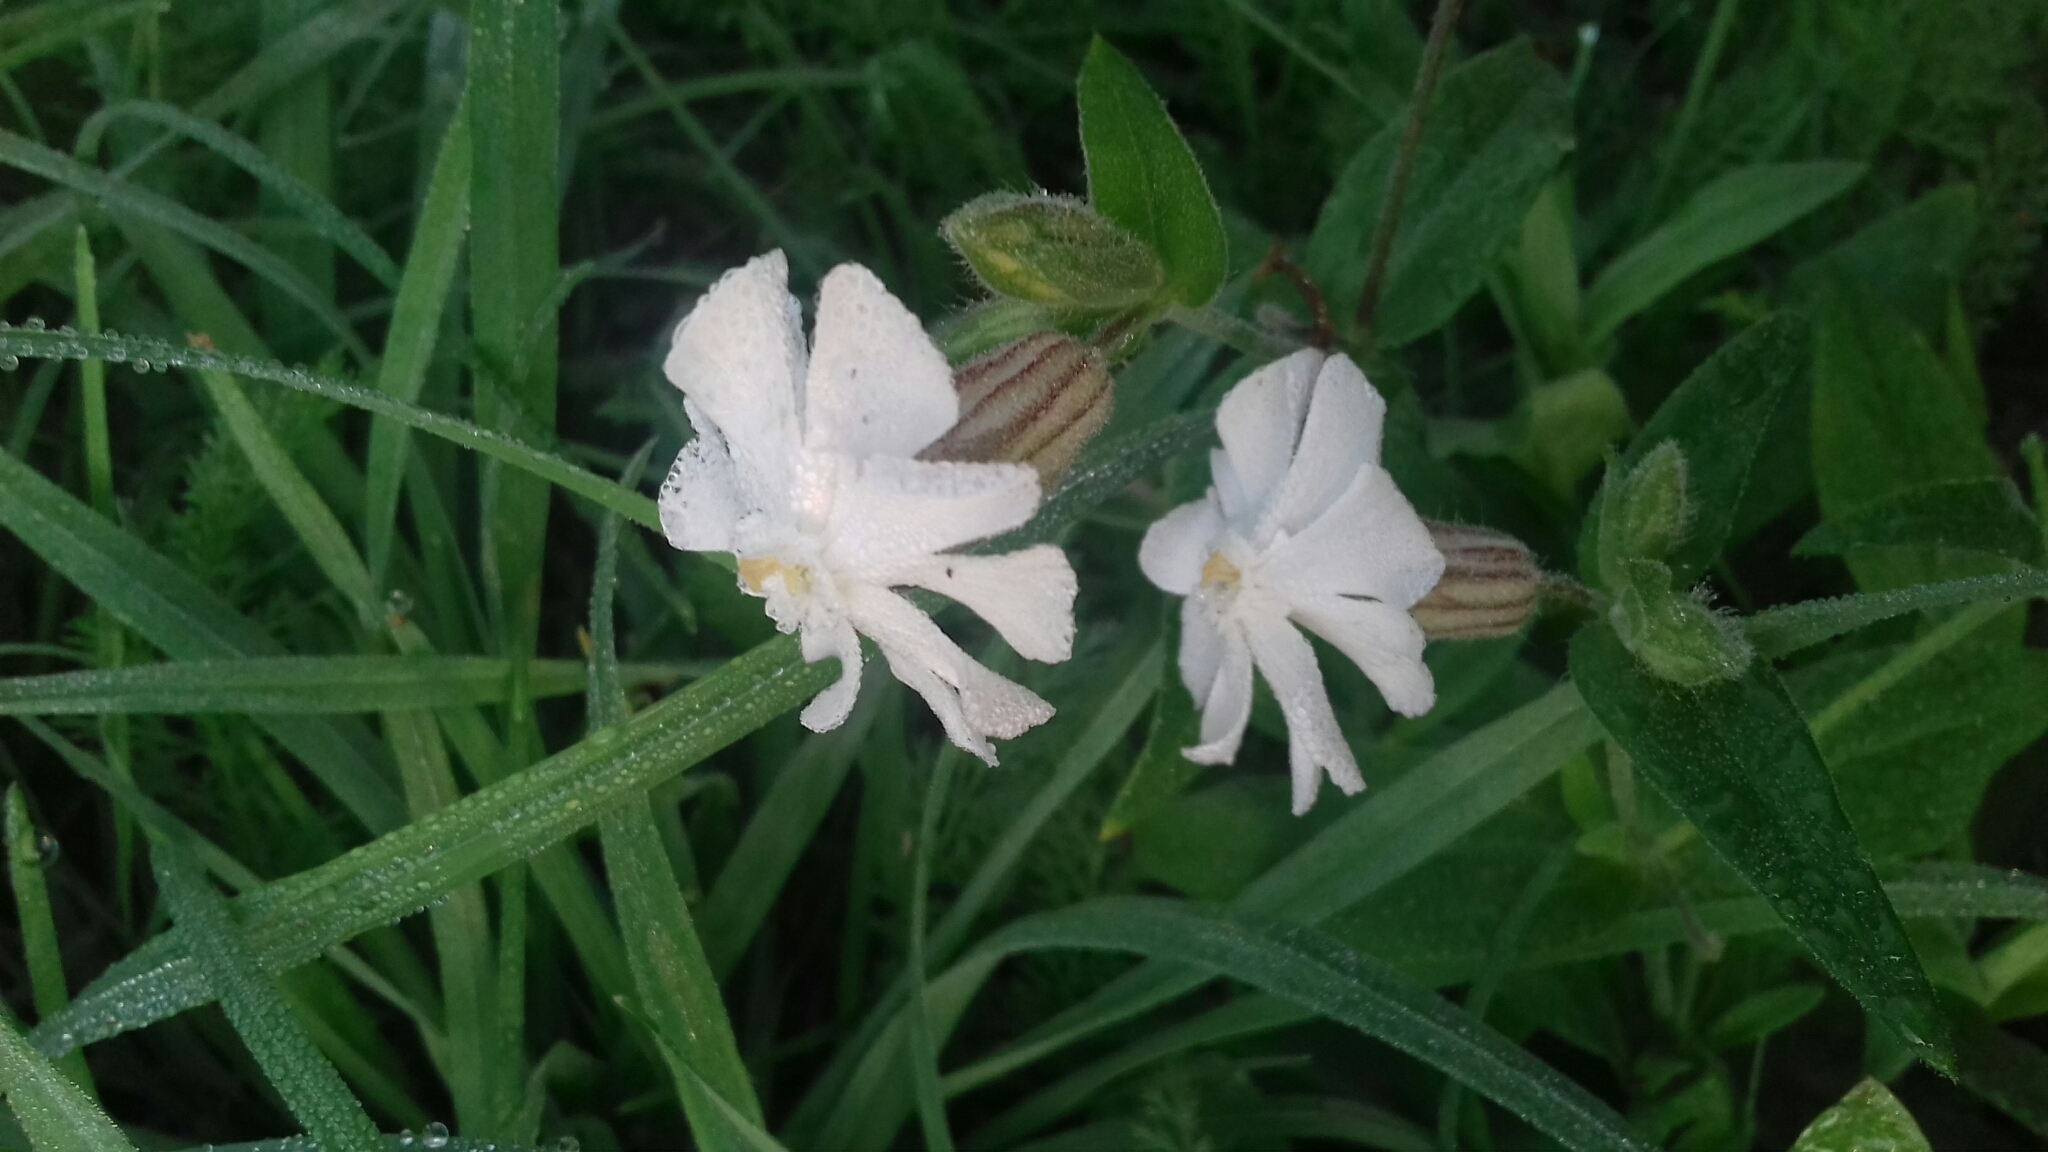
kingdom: Plantae
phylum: Tracheophyta
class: Magnoliopsida
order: Caryophyllales
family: Caryophyllaceae
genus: Silene
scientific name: Silene latifolia
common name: White campion
